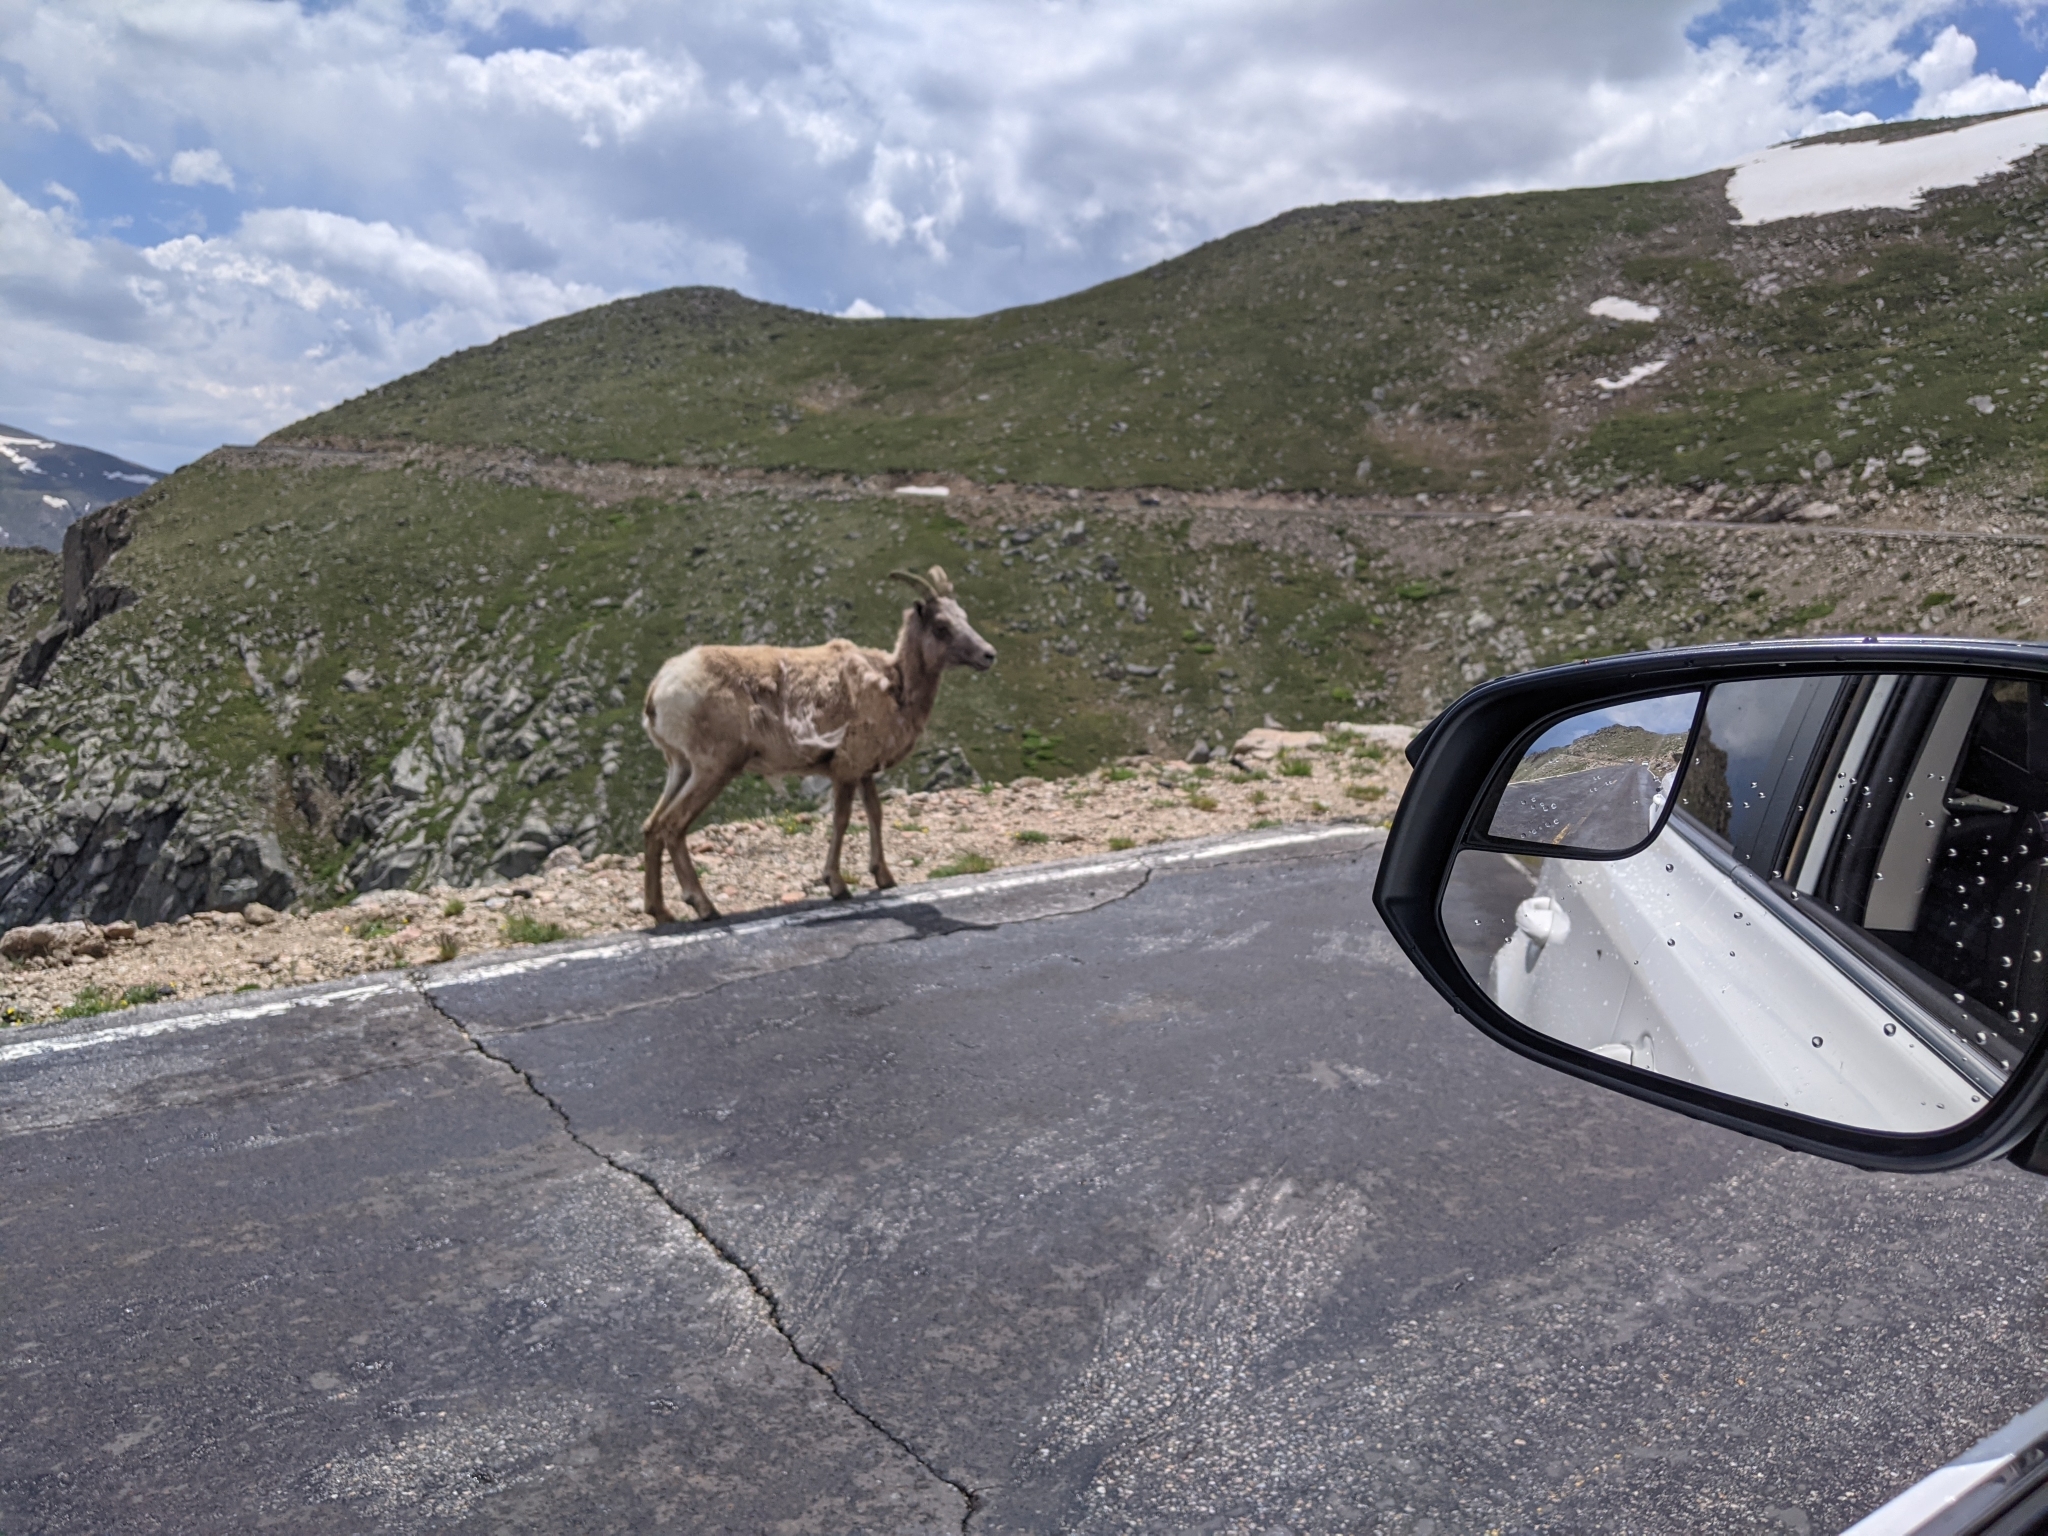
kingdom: Animalia
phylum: Chordata
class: Mammalia
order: Artiodactyla
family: Bovidae
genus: Ovis
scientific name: Ovis canadensis
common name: Bighorn sheep
